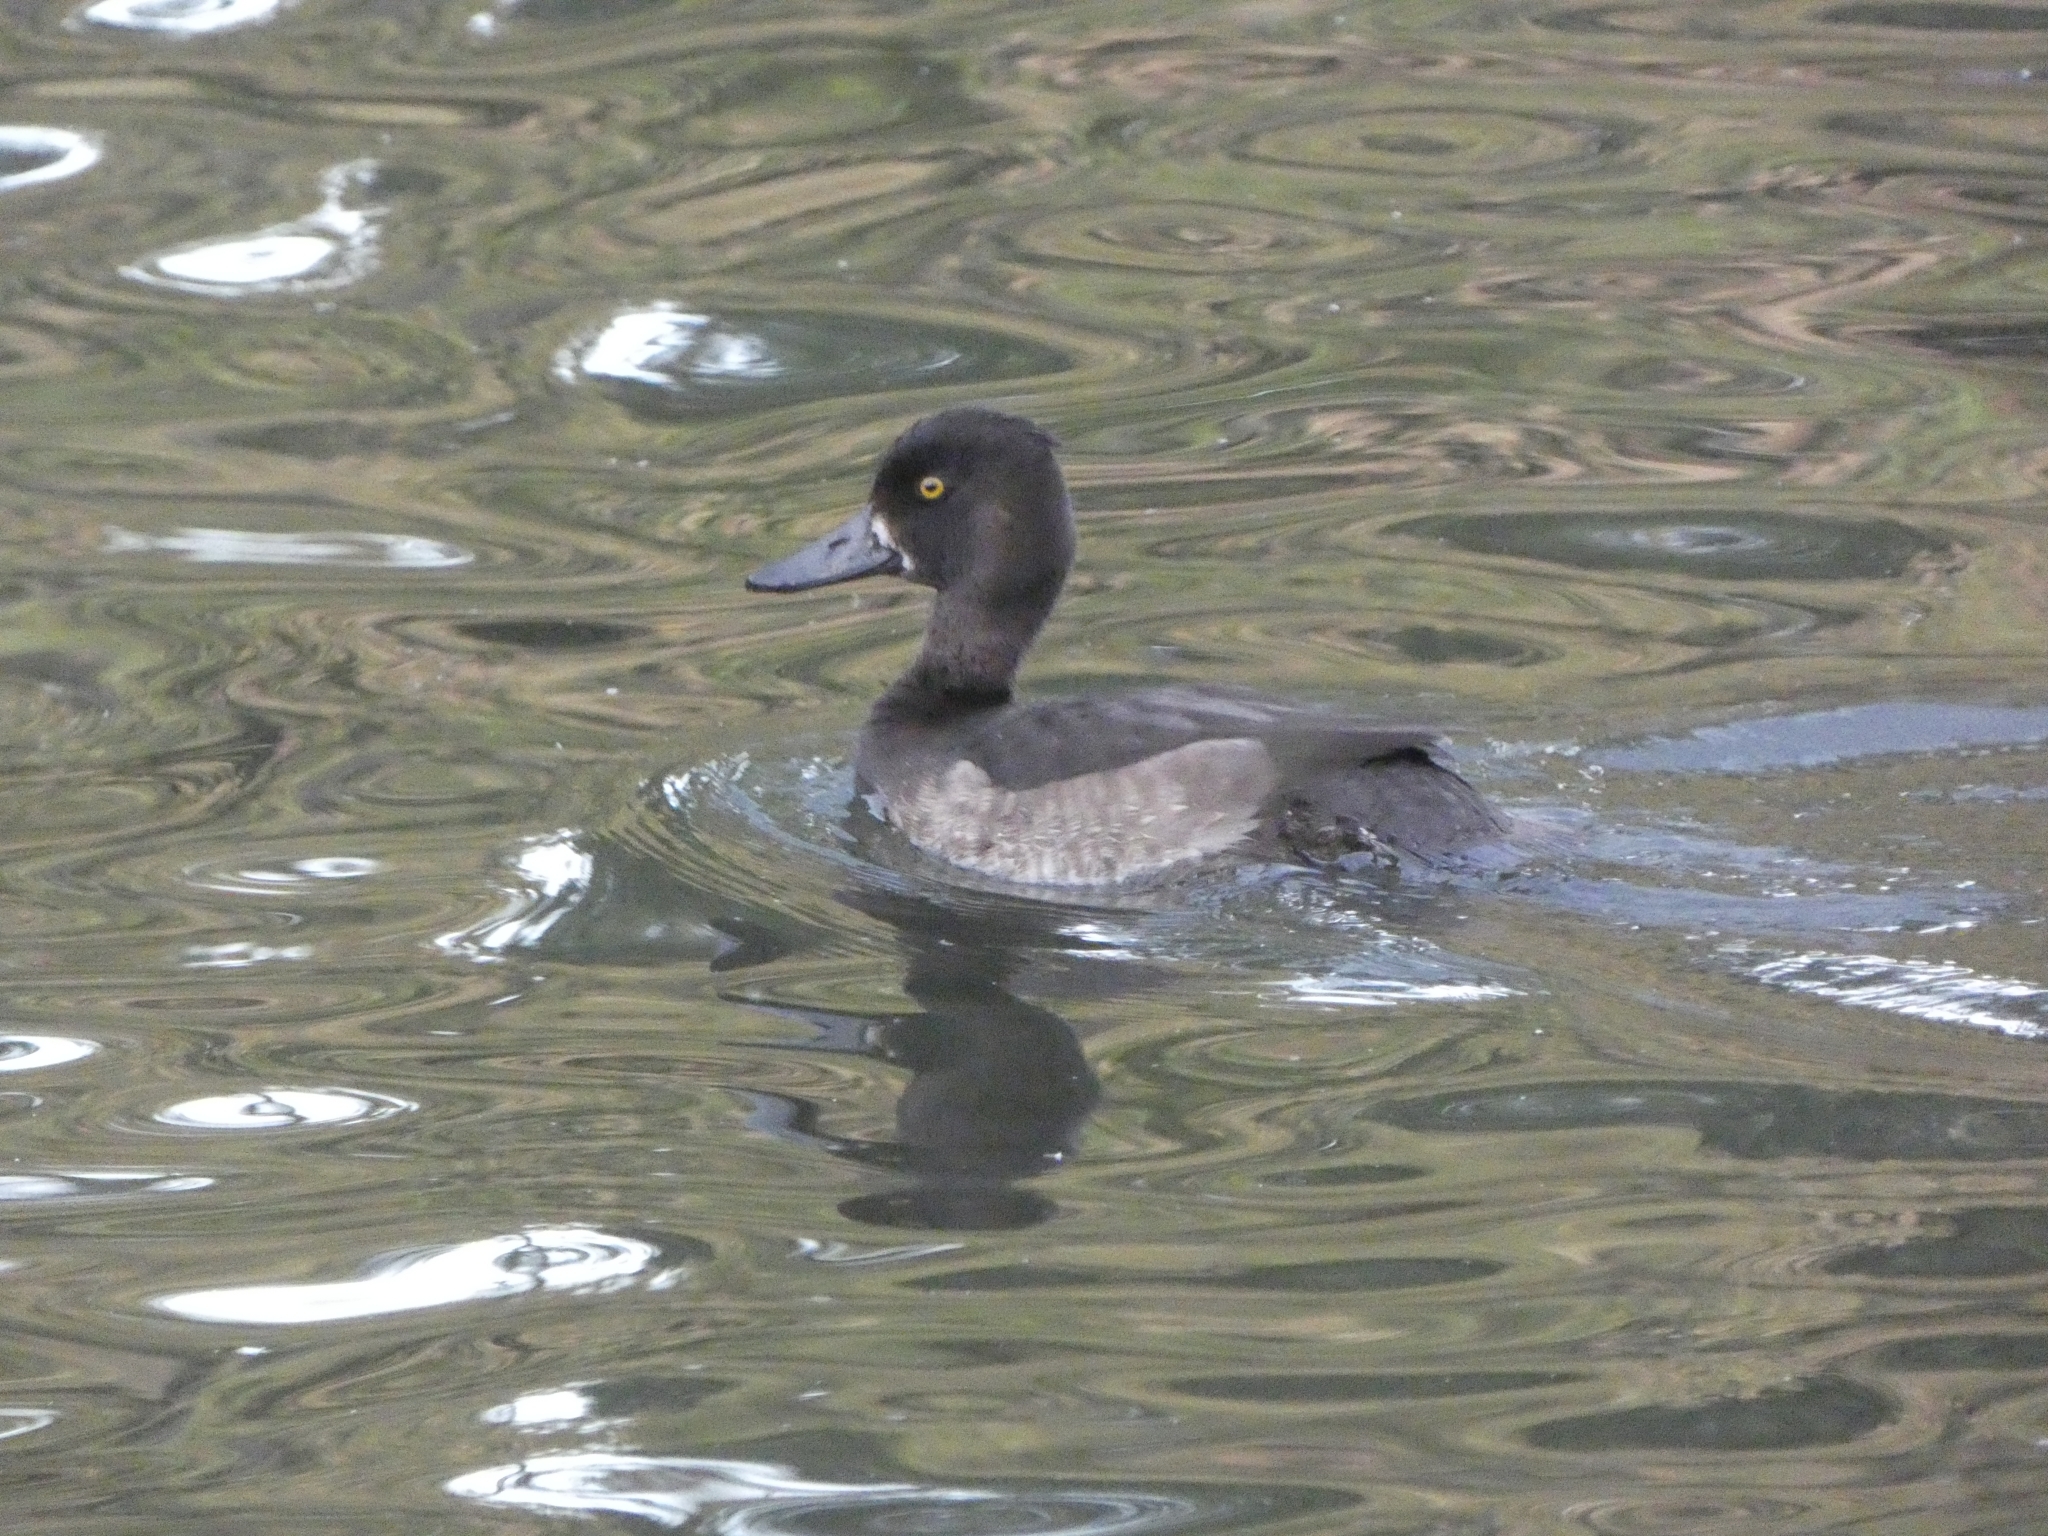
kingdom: Animalia
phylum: Chordata
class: Aves
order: Anseriformes
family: Anatidae
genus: Aythya
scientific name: Aythya fuligula
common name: Tufted duck
